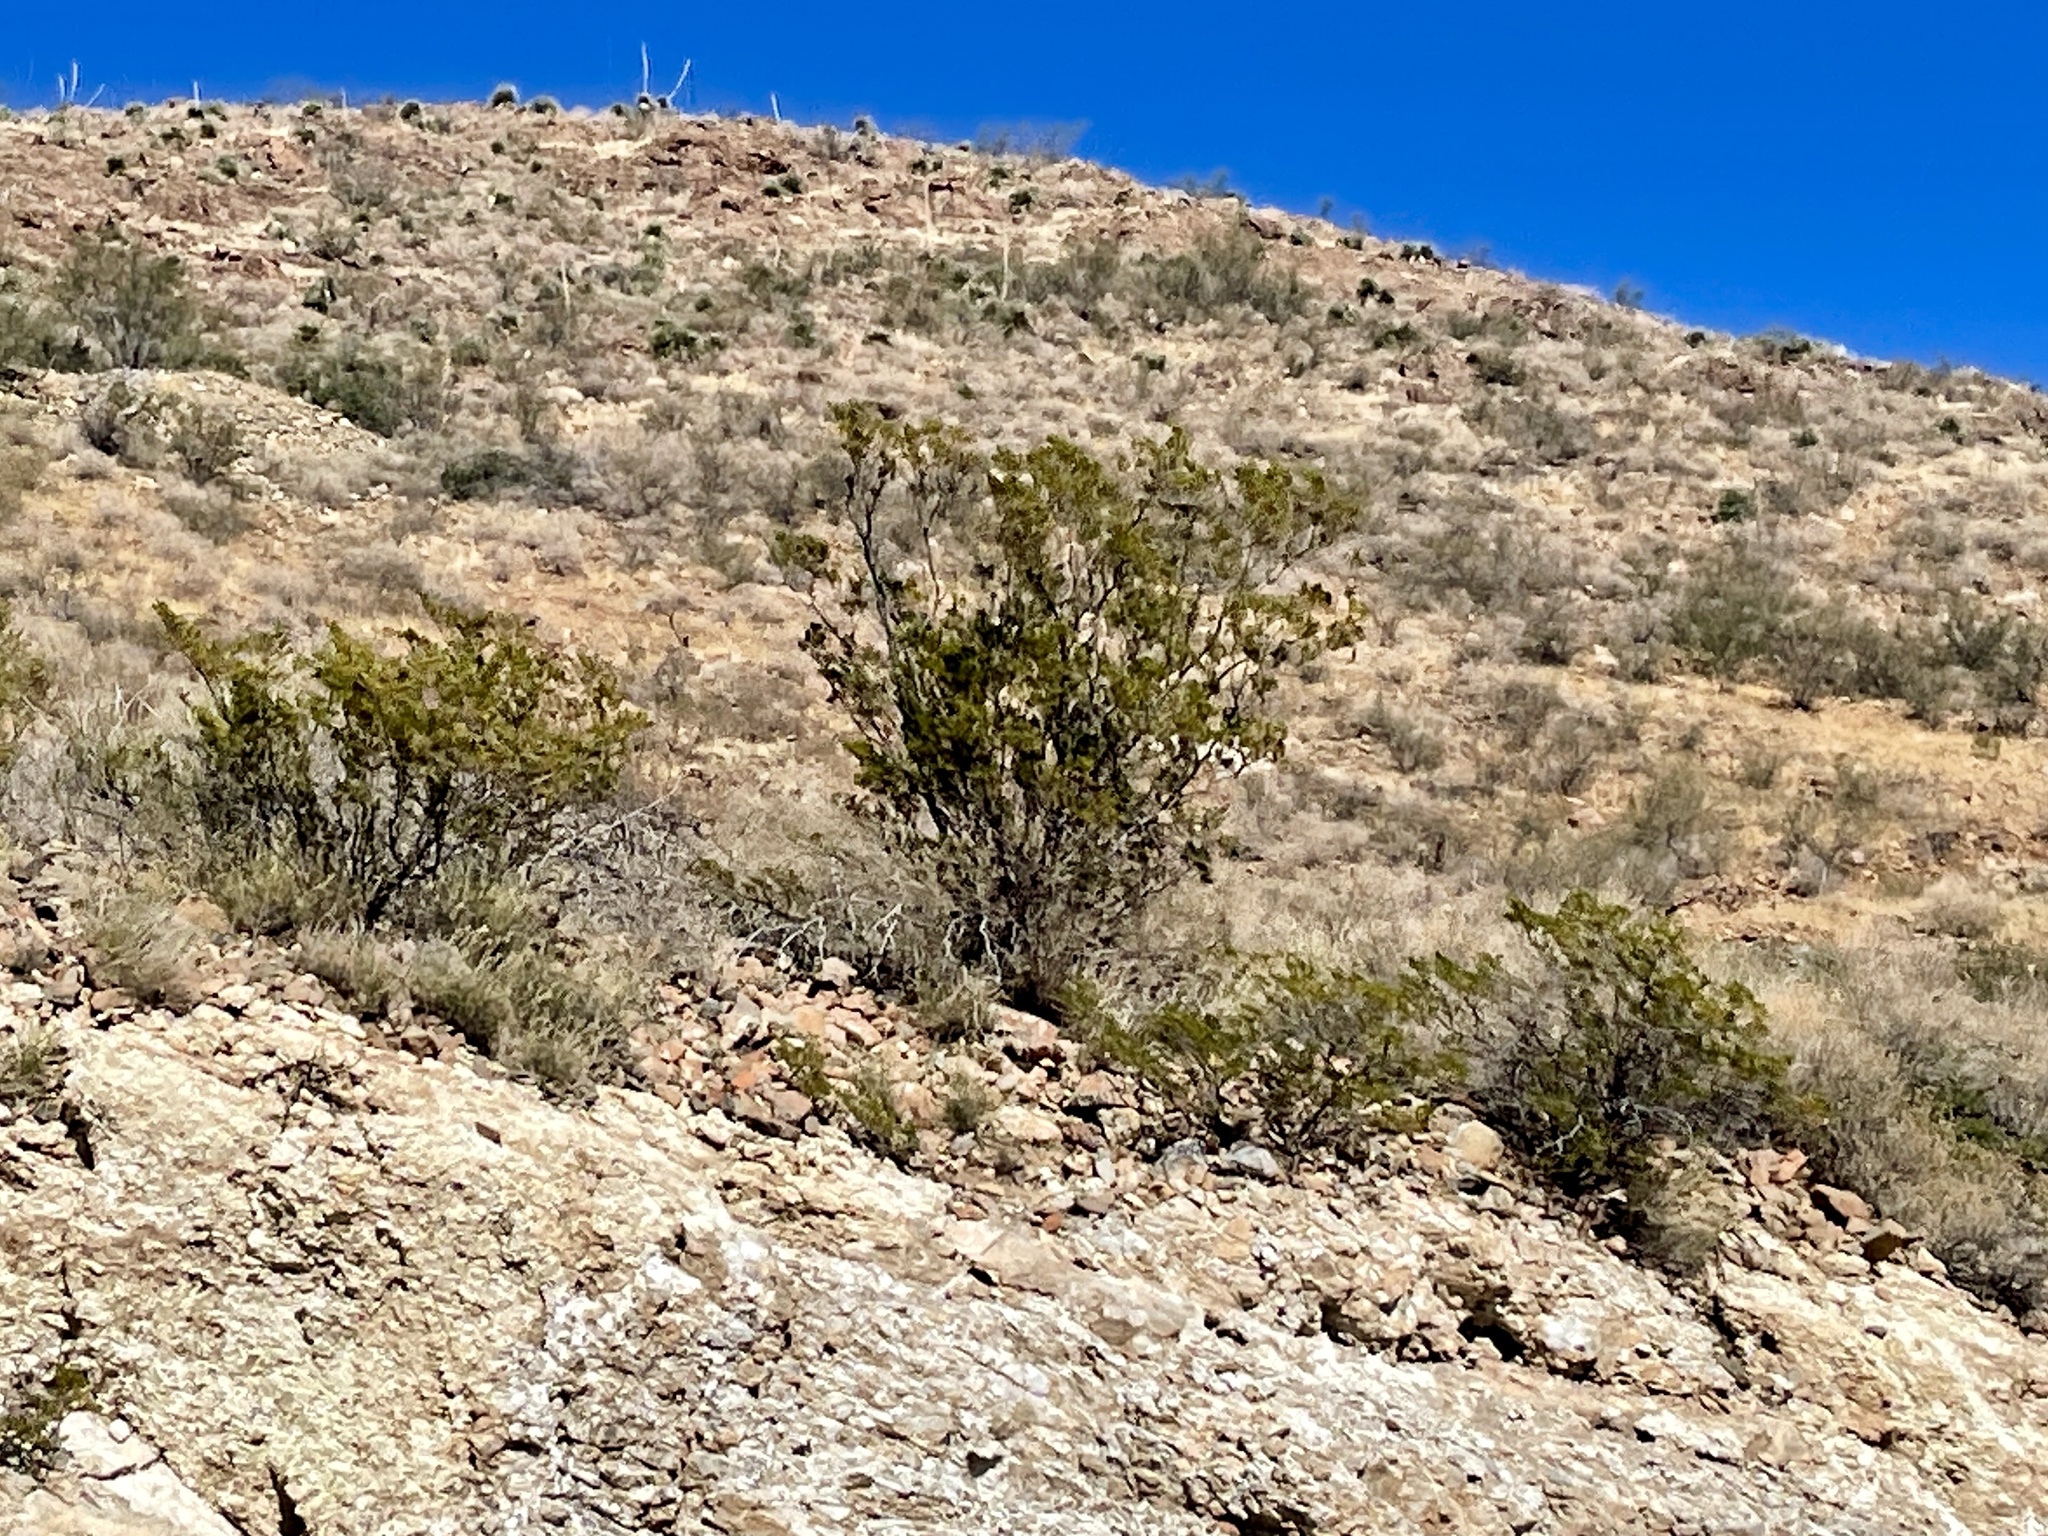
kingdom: Plantae
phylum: Tracheophyta
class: Magnoliopsida
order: Zygophyllales
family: Zygophyllaceae
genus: Larrea
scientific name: Larrea tridentata
